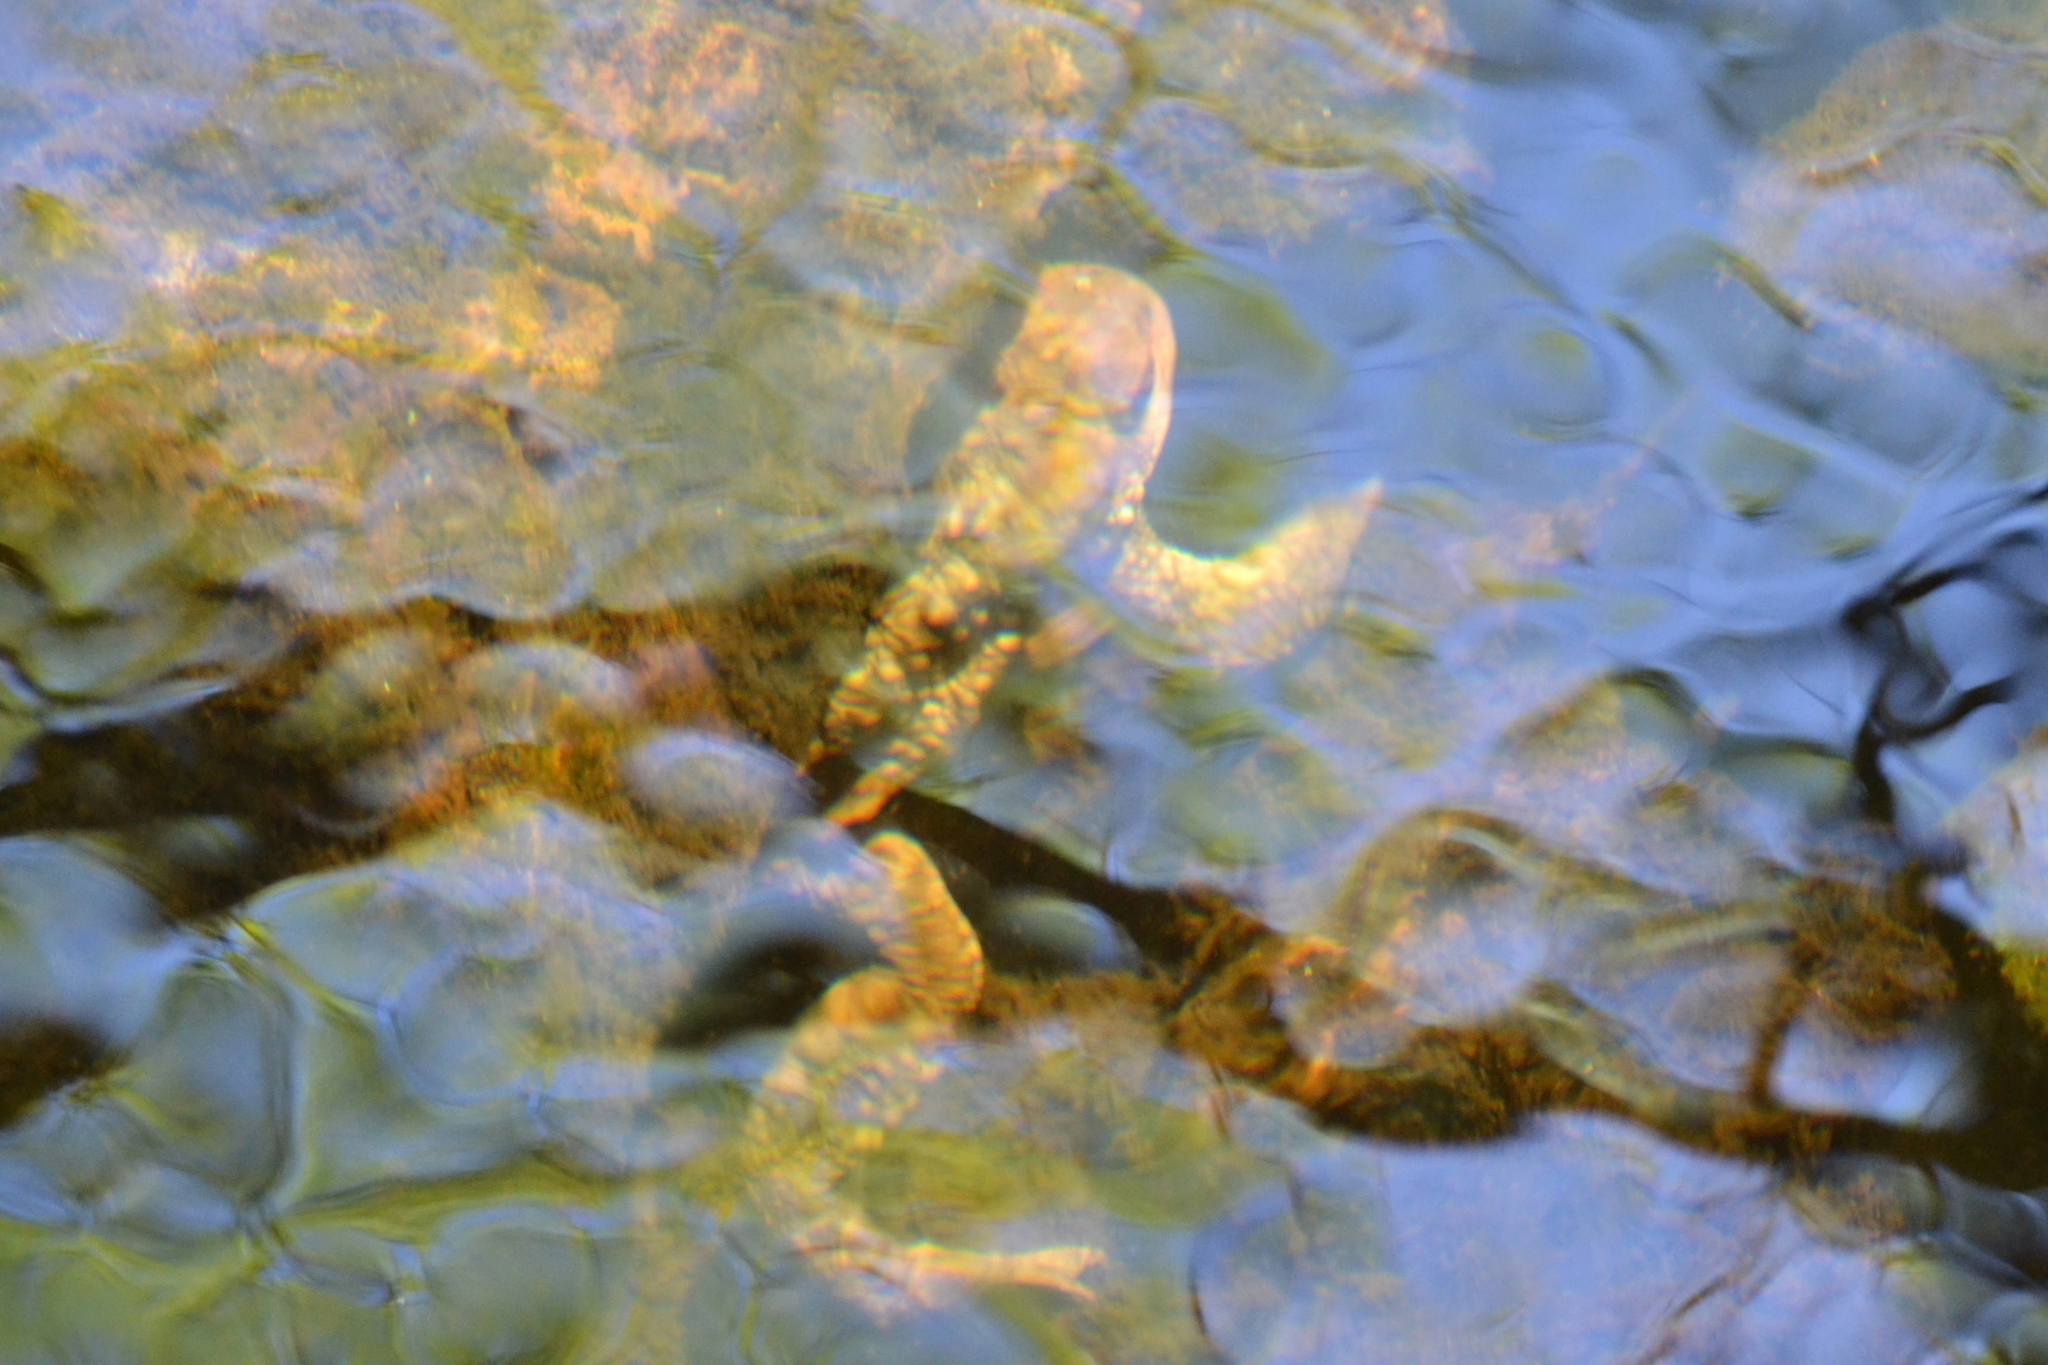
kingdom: Animalia
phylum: Chordata
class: Amphibia
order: Anura
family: Bufonidae
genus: Bufo
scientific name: Bufo spinosus
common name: Western common toad
